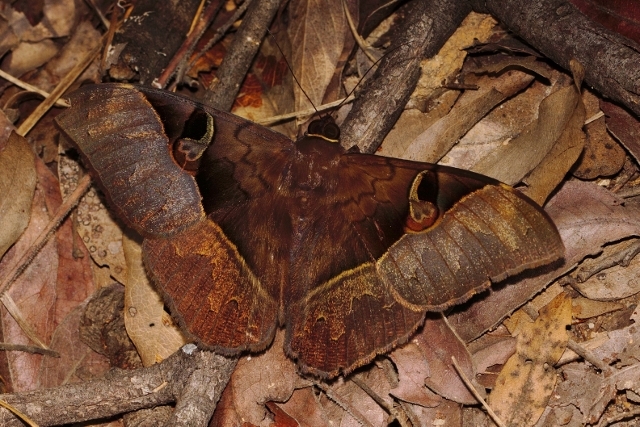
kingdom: Animalia
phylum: Arthropoda
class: Insecta
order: Lepidoptera
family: Erebidae
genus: Cyligramma
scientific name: Cyligramma fluctuosa
